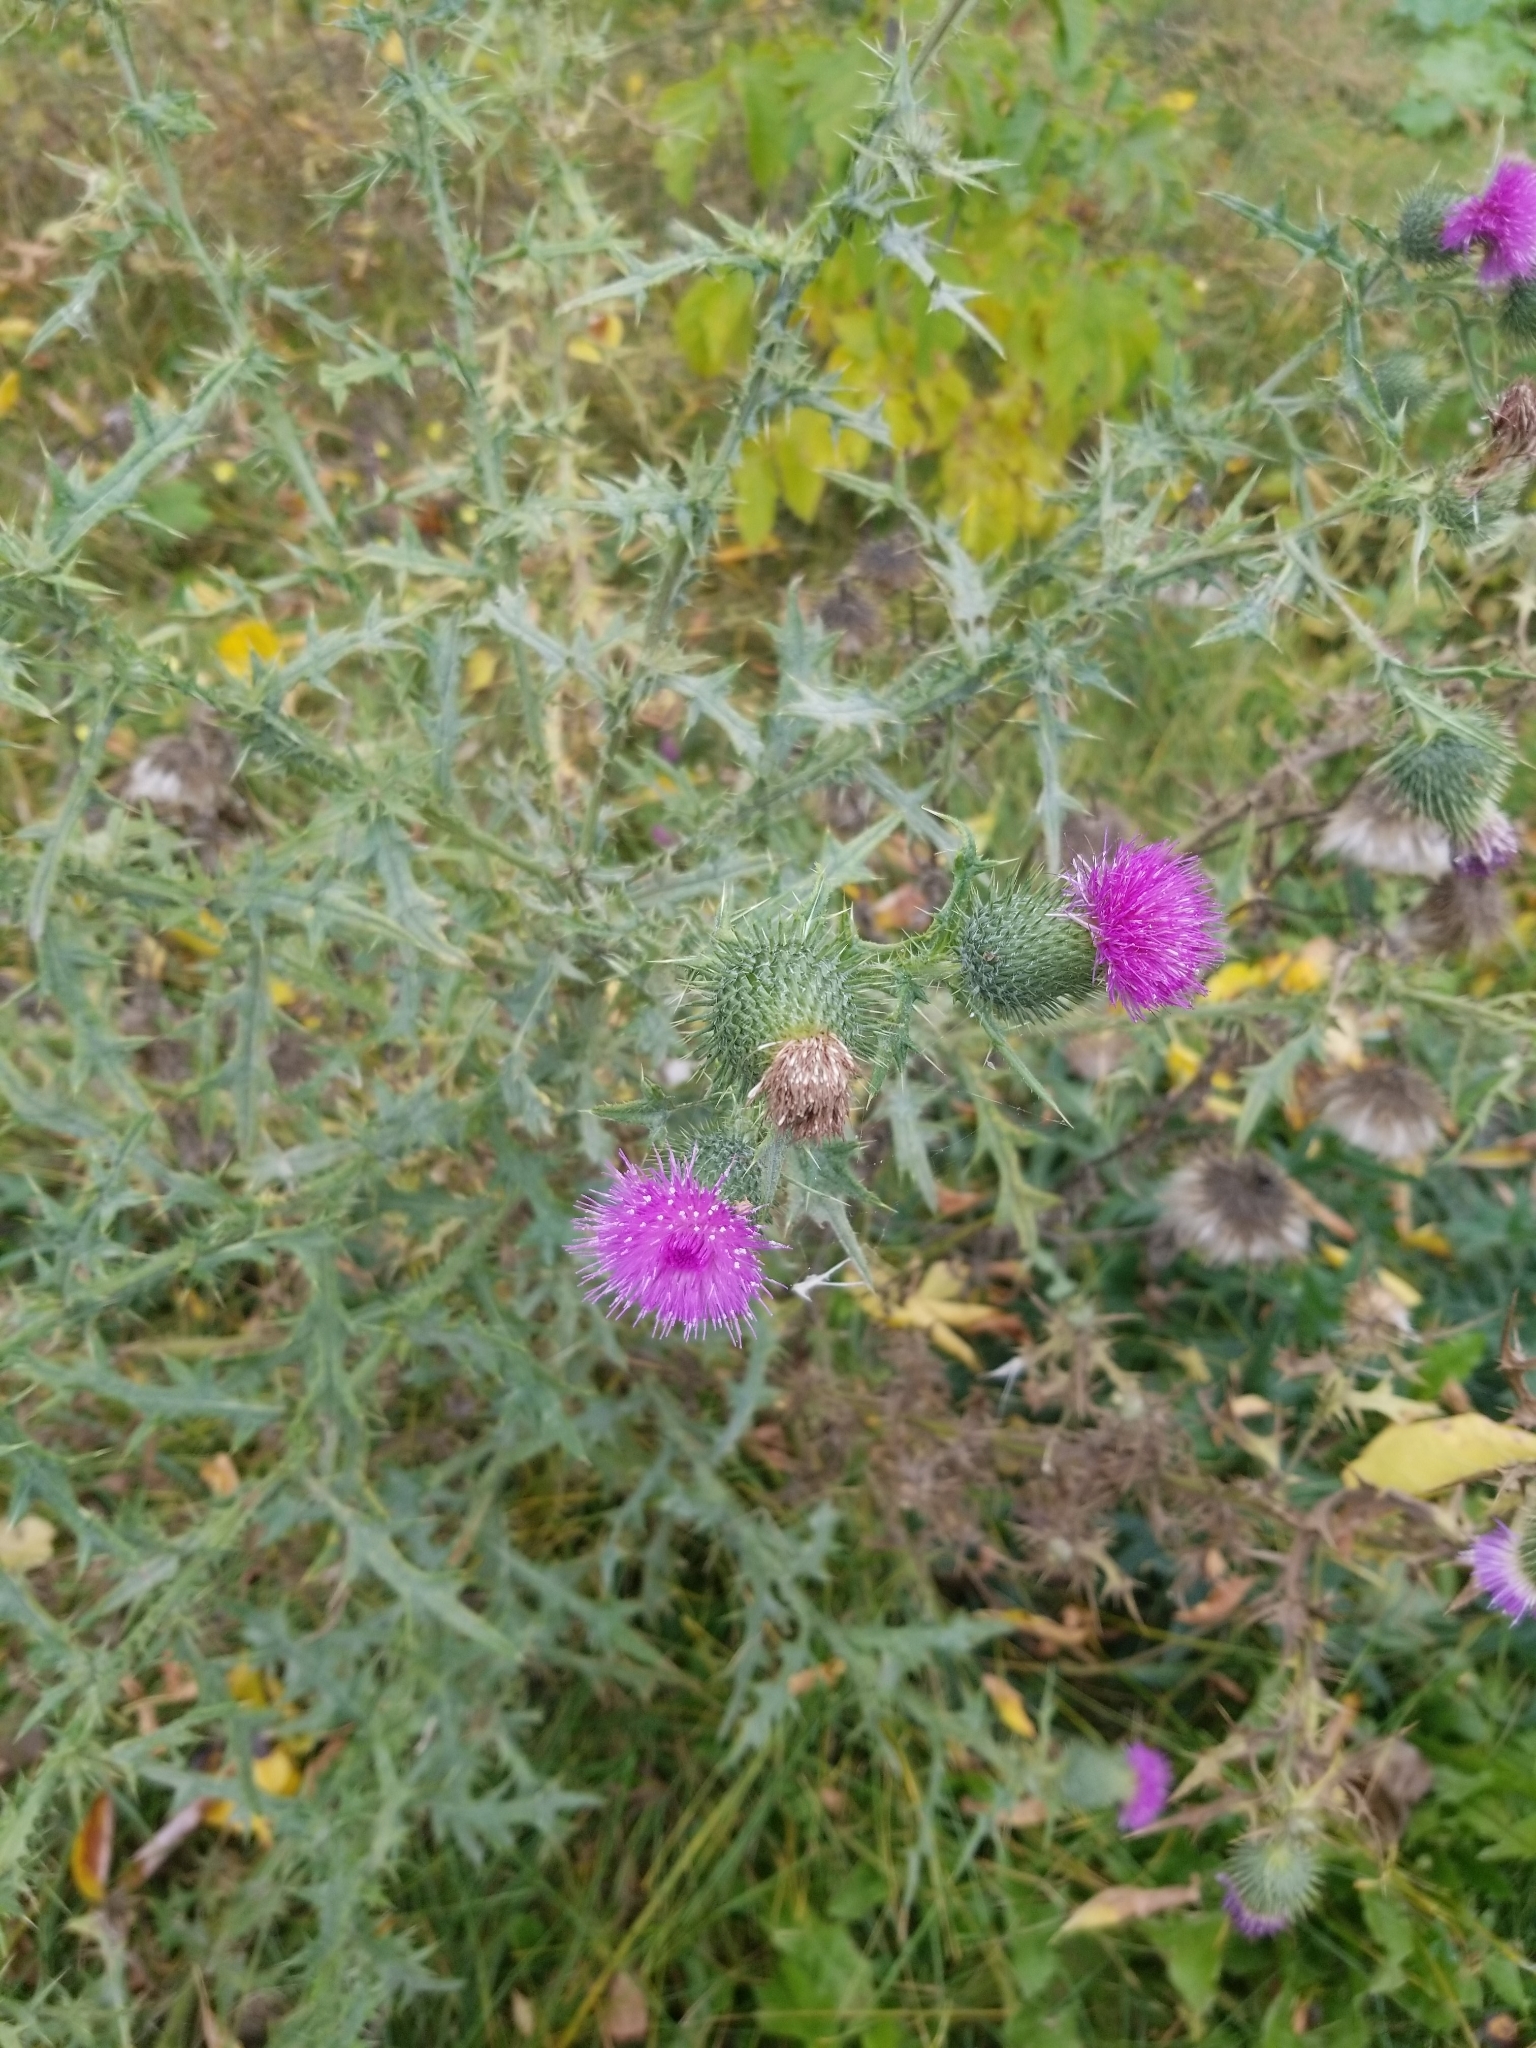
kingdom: Plantae
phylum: Tracheophyta
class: Magnoliopsida
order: Asterales
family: Asteraceae
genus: Cirsium
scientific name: Cirsium vulgare
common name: Bull thistle
